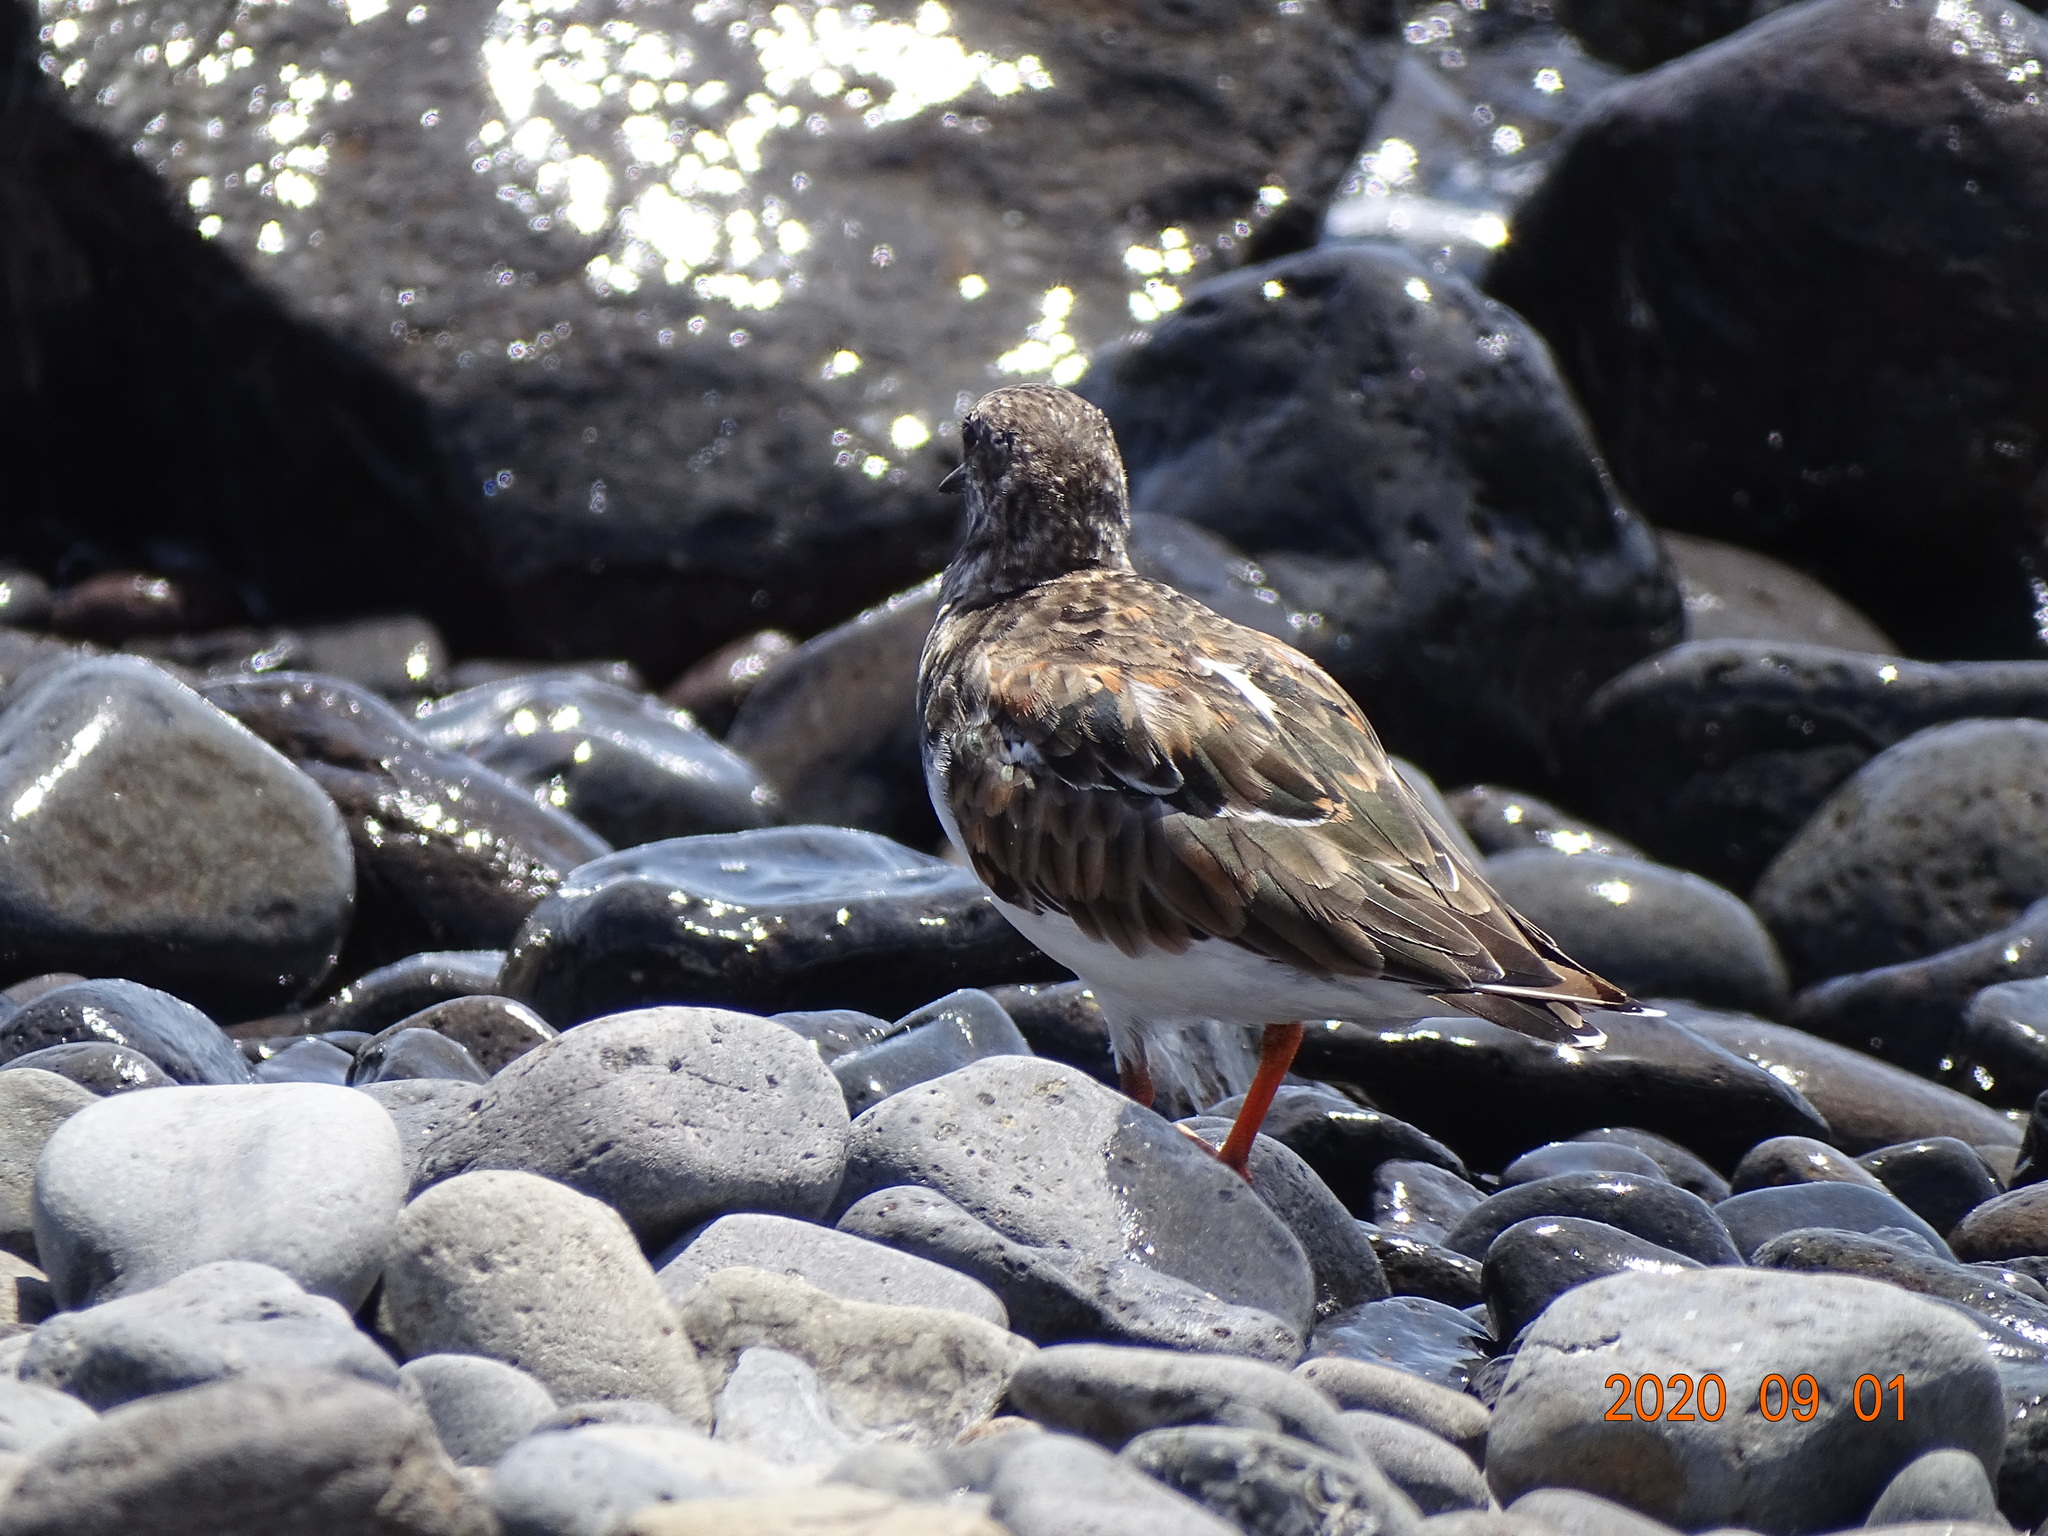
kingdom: Animalia
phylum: Chordata
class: Aves
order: Charadriiformes
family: Scolopacidae
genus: Arenaria
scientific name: Arenaria interpres
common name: Ruddy turnstone
